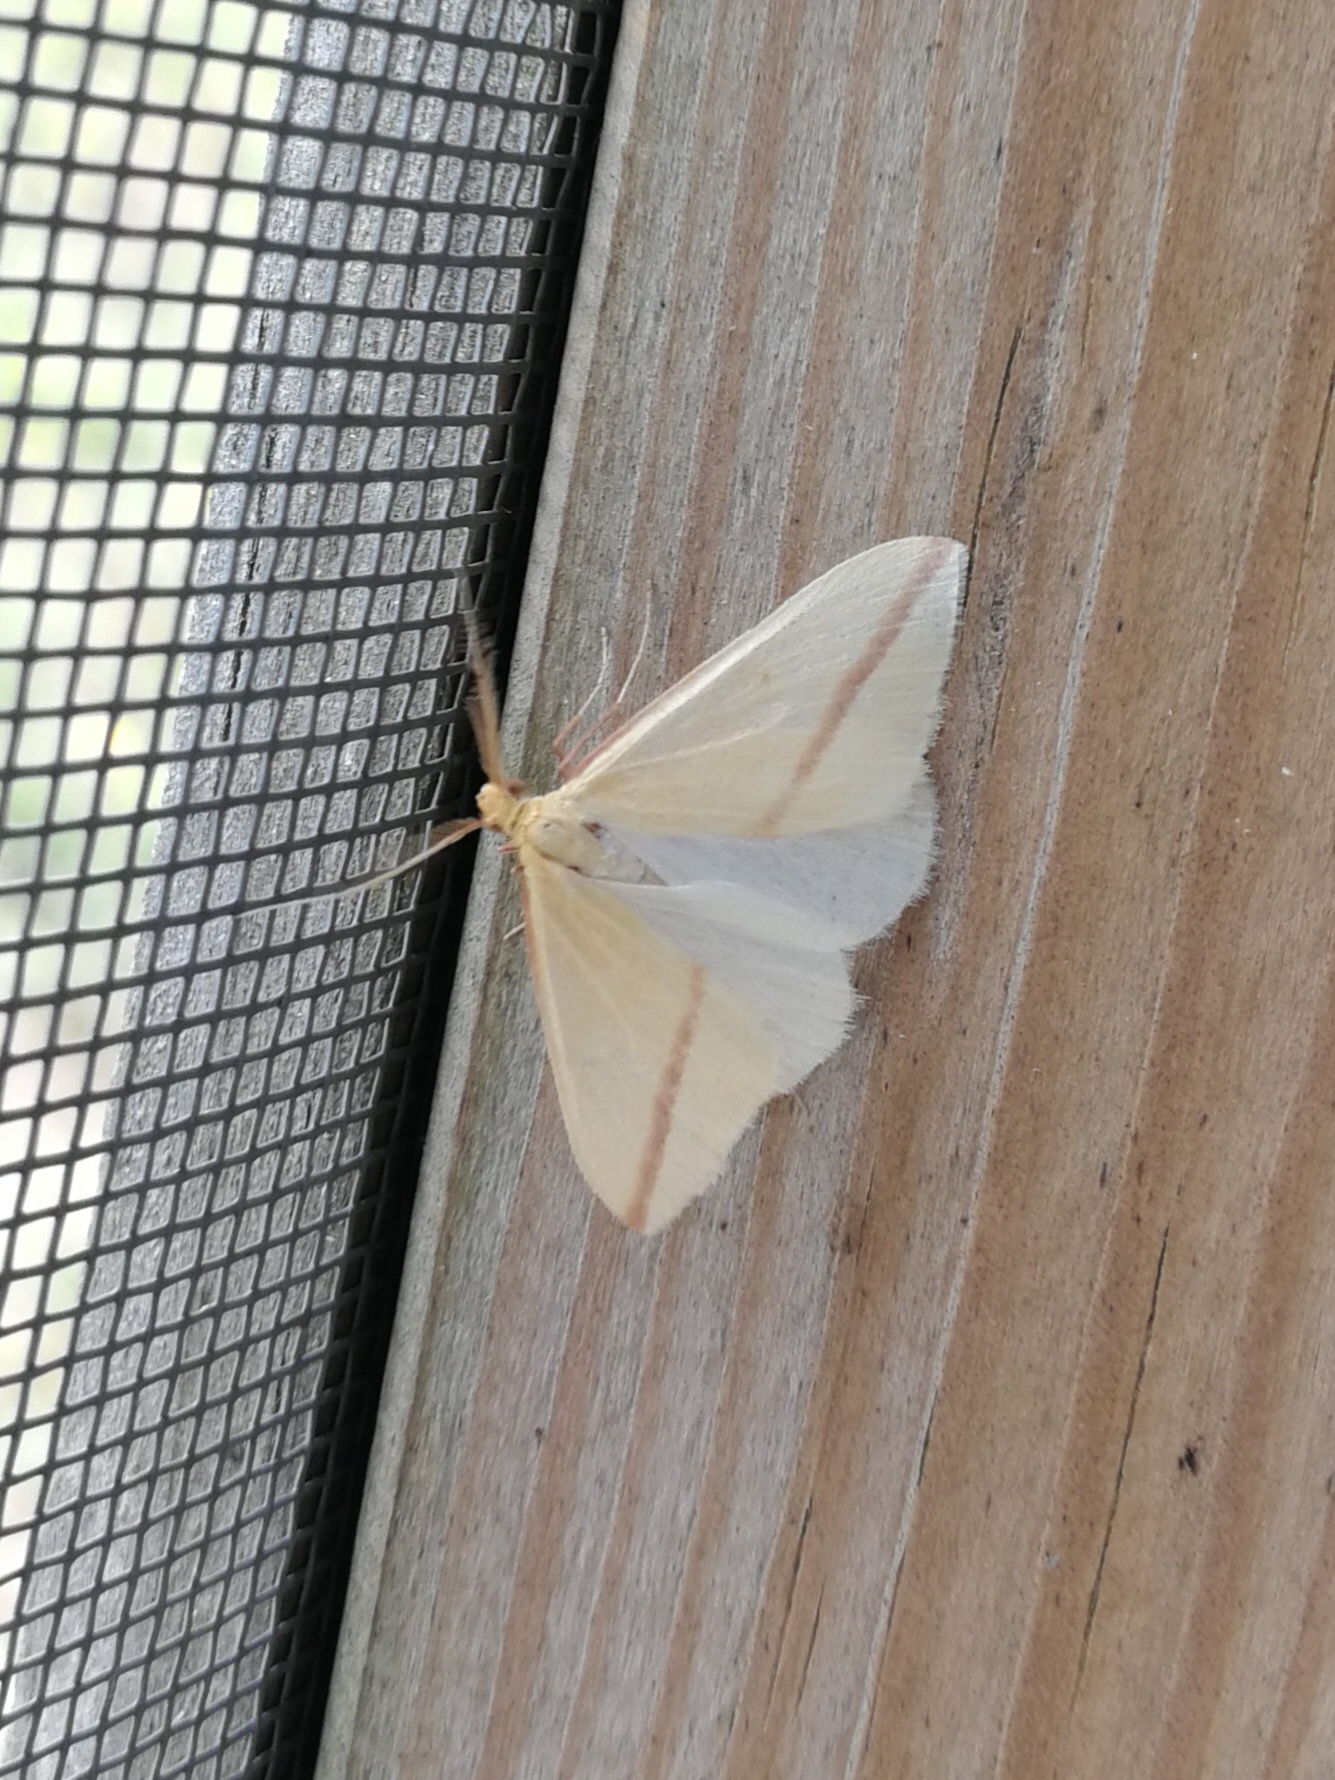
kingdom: Animalia
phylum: Arthropoda
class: Insecta
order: Lepidoptera
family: Geometridae
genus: Rhodometra
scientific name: Rhodometra sacraria
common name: Vestal
